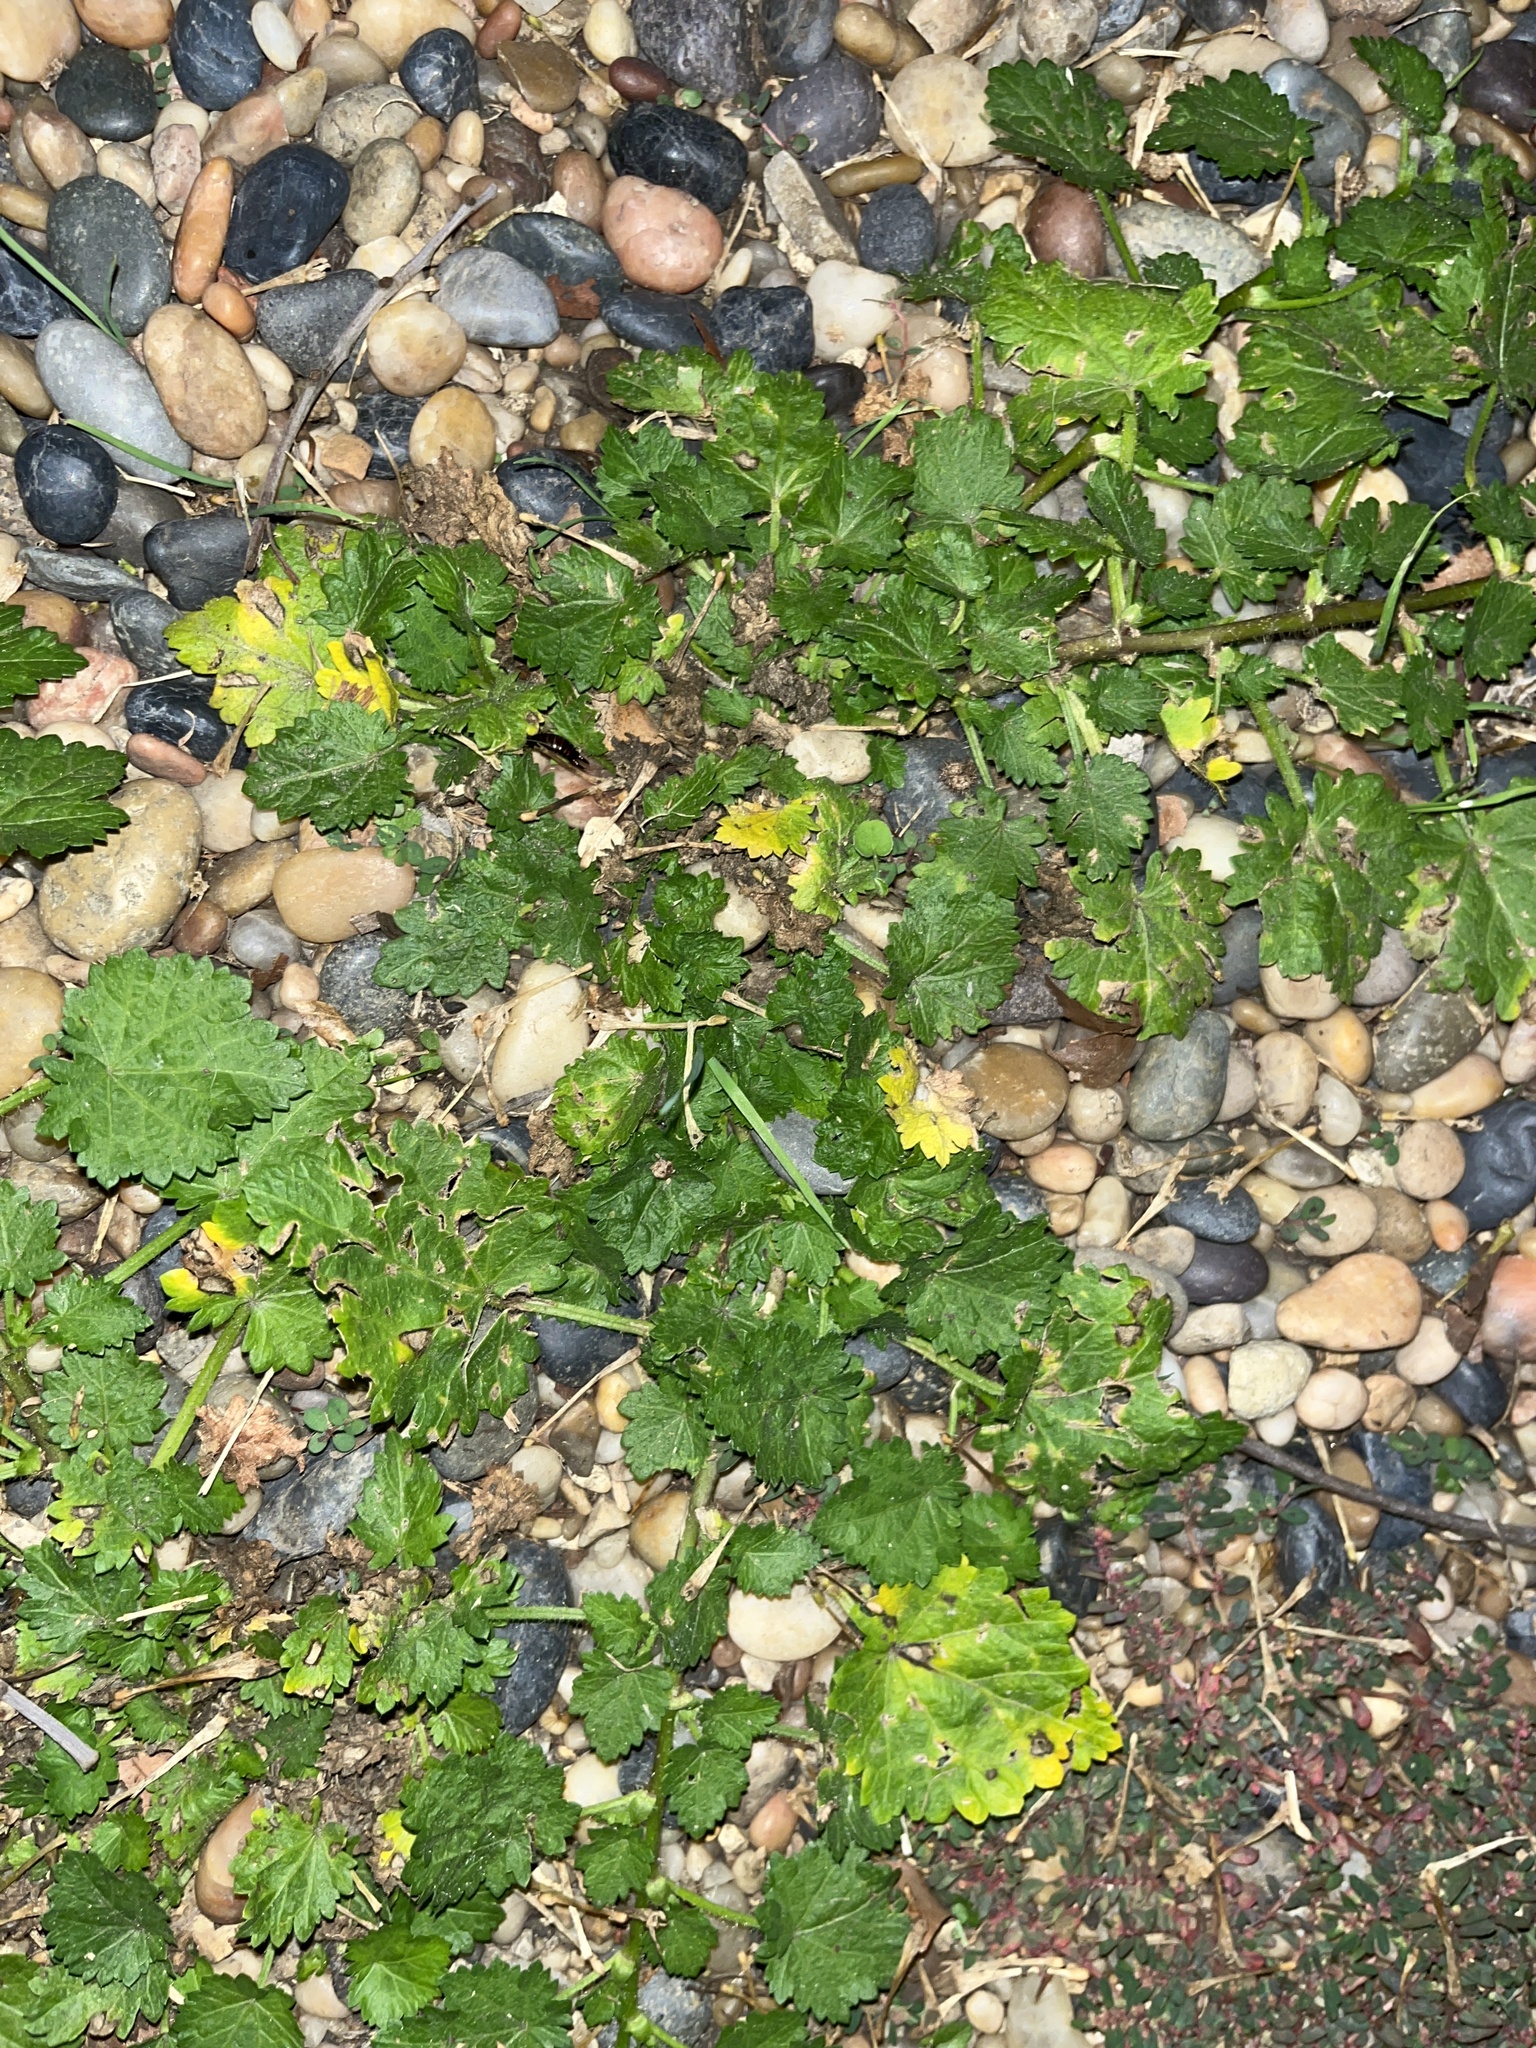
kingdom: Plantae
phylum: Tracheophyta
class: Magnoliopsida
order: Malvales
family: Malvaceae
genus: Modiola
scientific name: Modiola caroliniana
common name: Carolina bristlemallow
